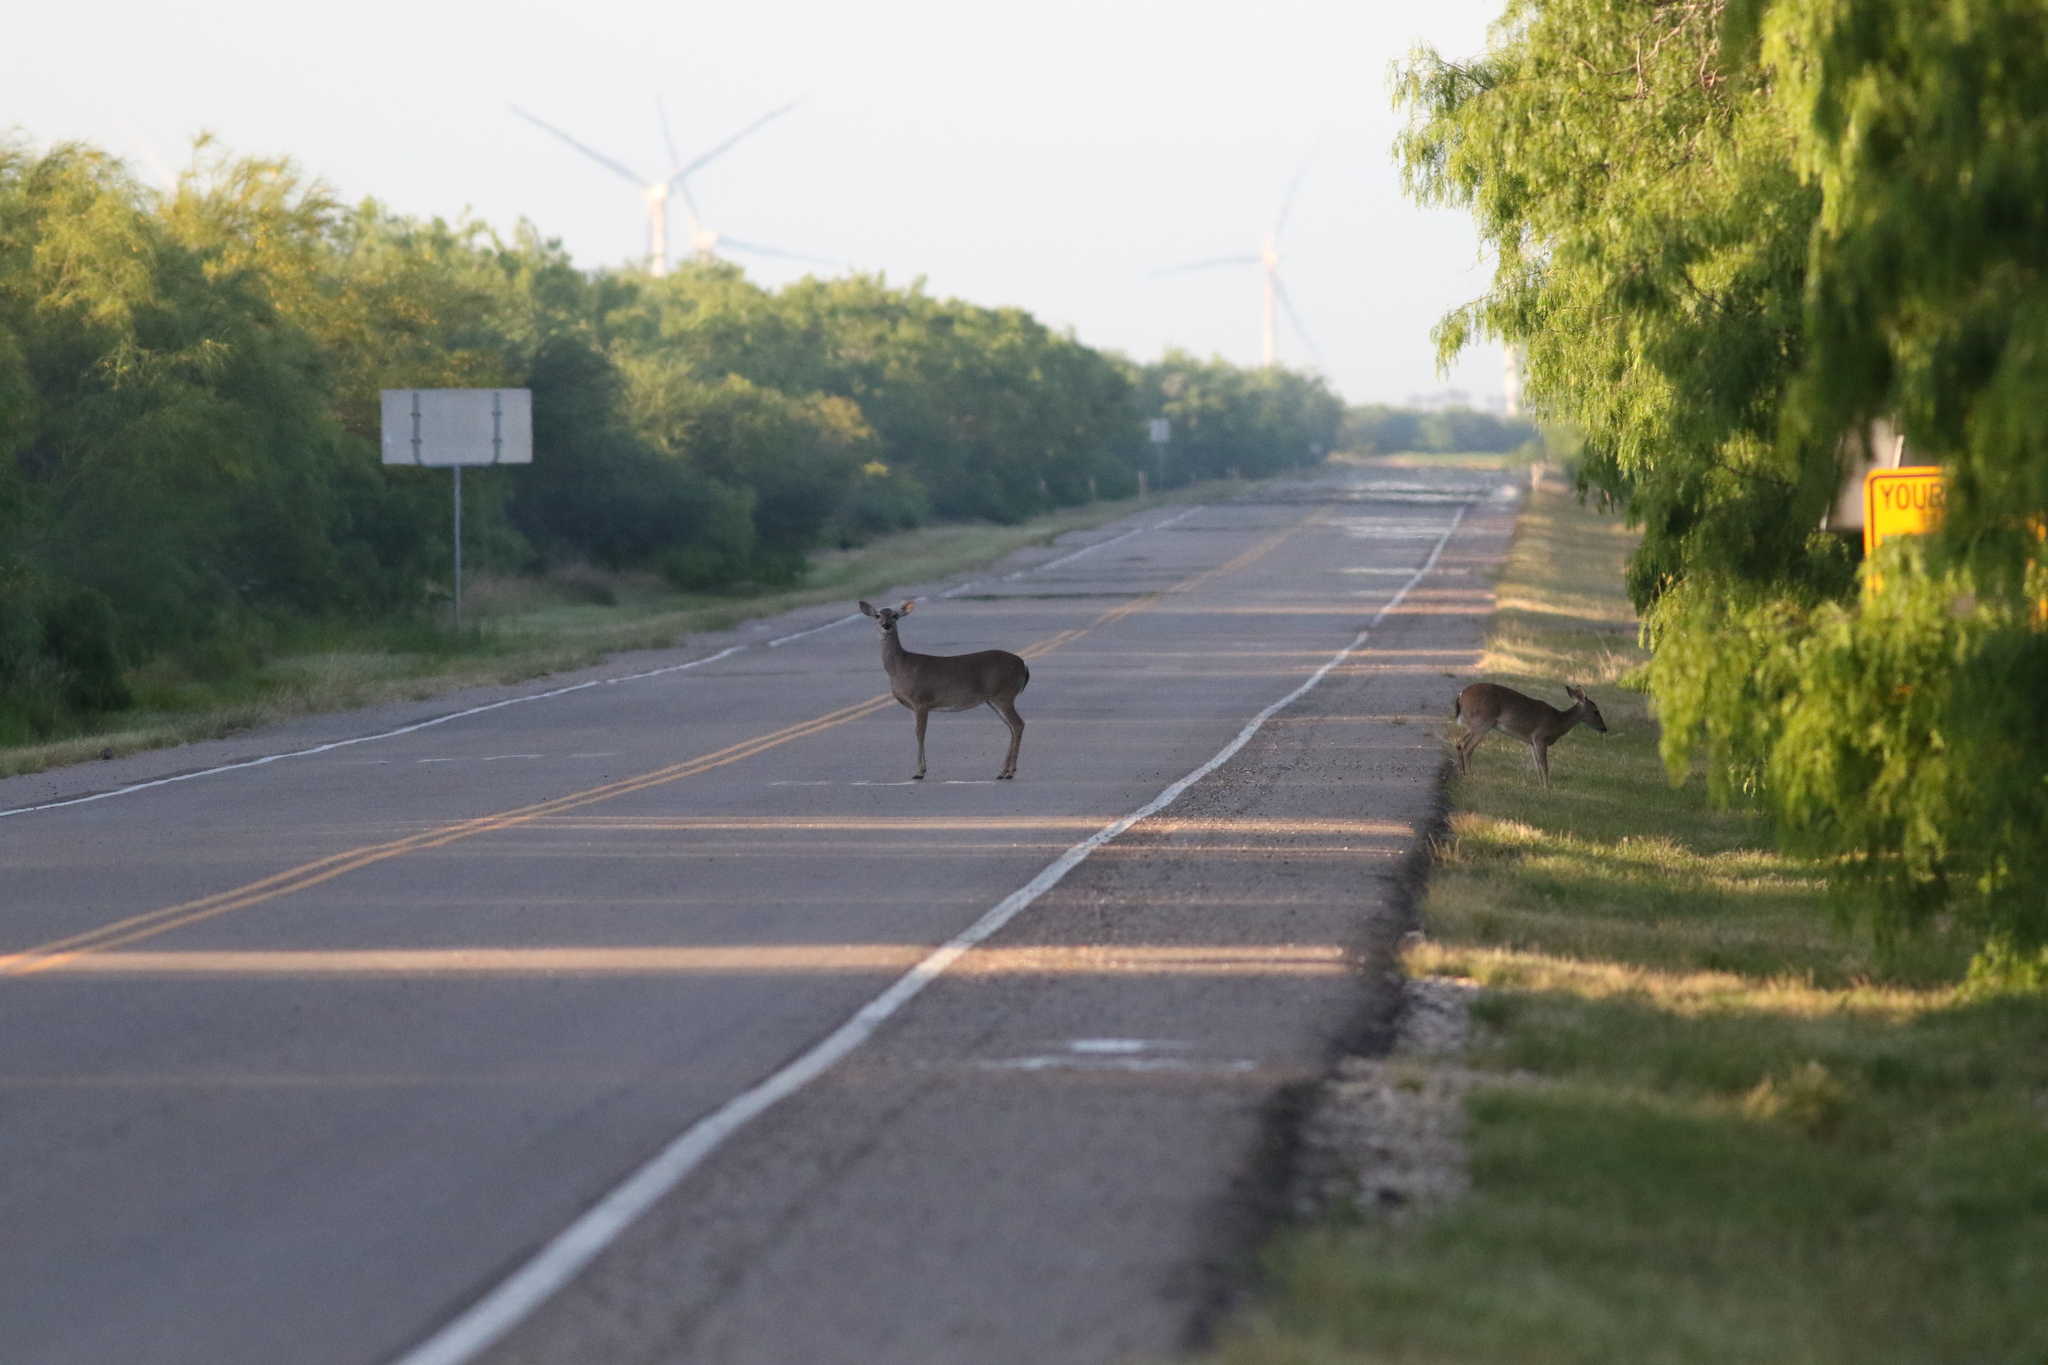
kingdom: Animalia
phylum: Chordata
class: Mammalia
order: Artiodactyla
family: Cervidae
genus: Odocoileus
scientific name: Odocoileus virginianus
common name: White-tailed deer
